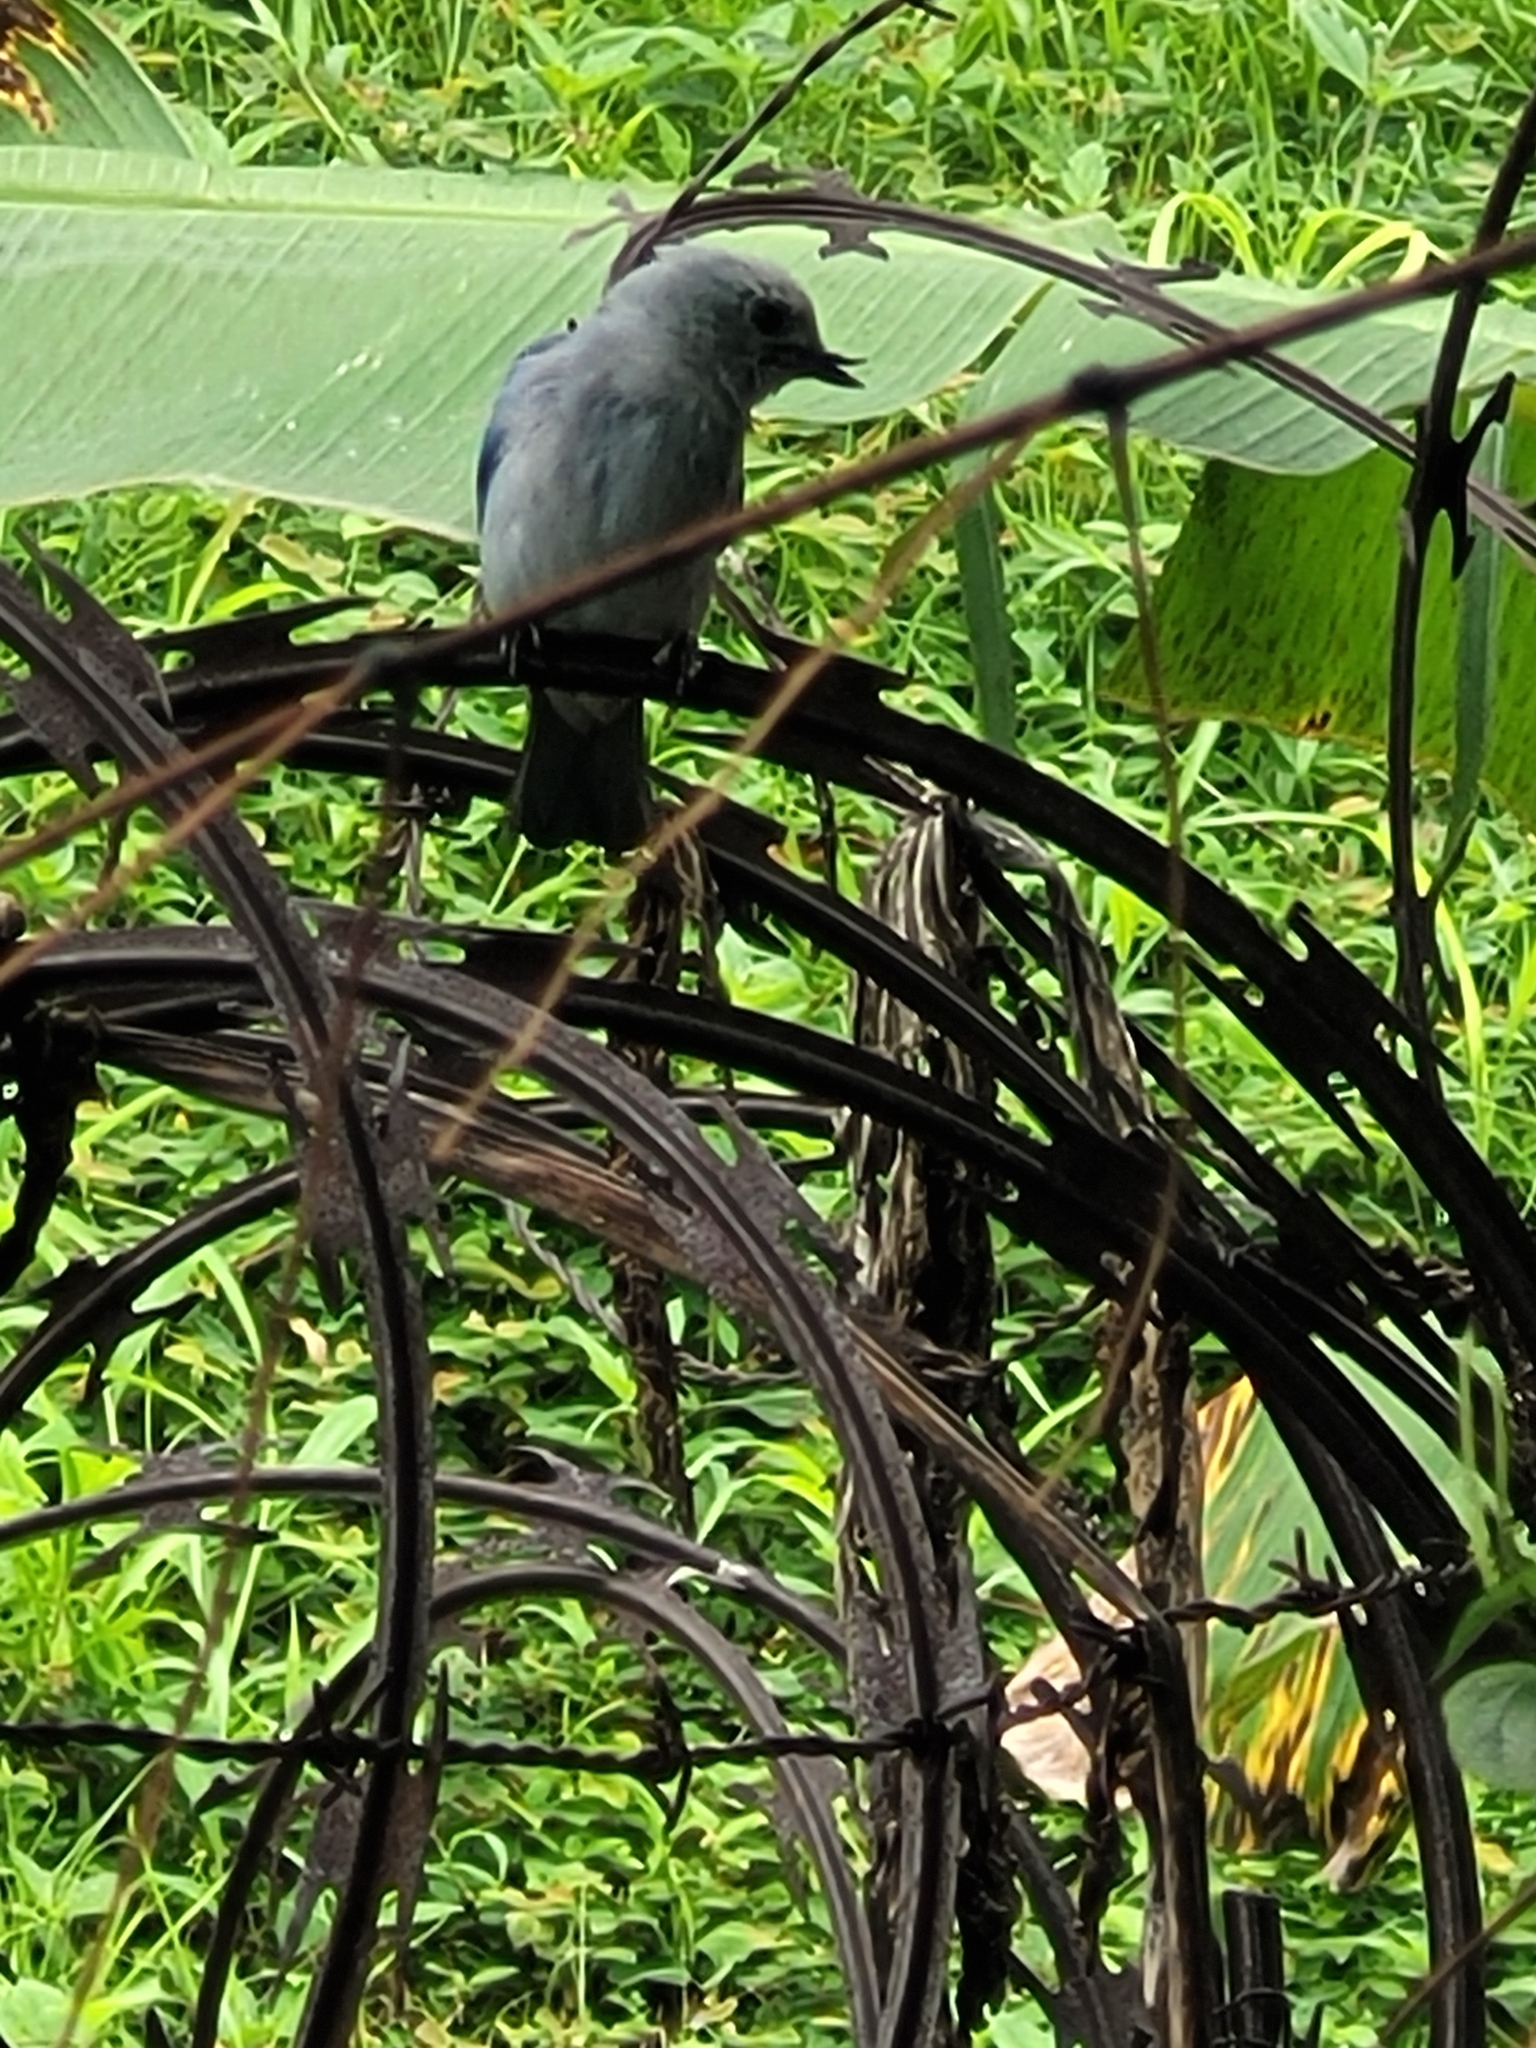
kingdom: Animalia
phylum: Chordata
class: Aves
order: Passeriformes
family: Thraupidae
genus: Thraupis
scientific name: Thraupis episcopus
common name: Blue-grey tanager
